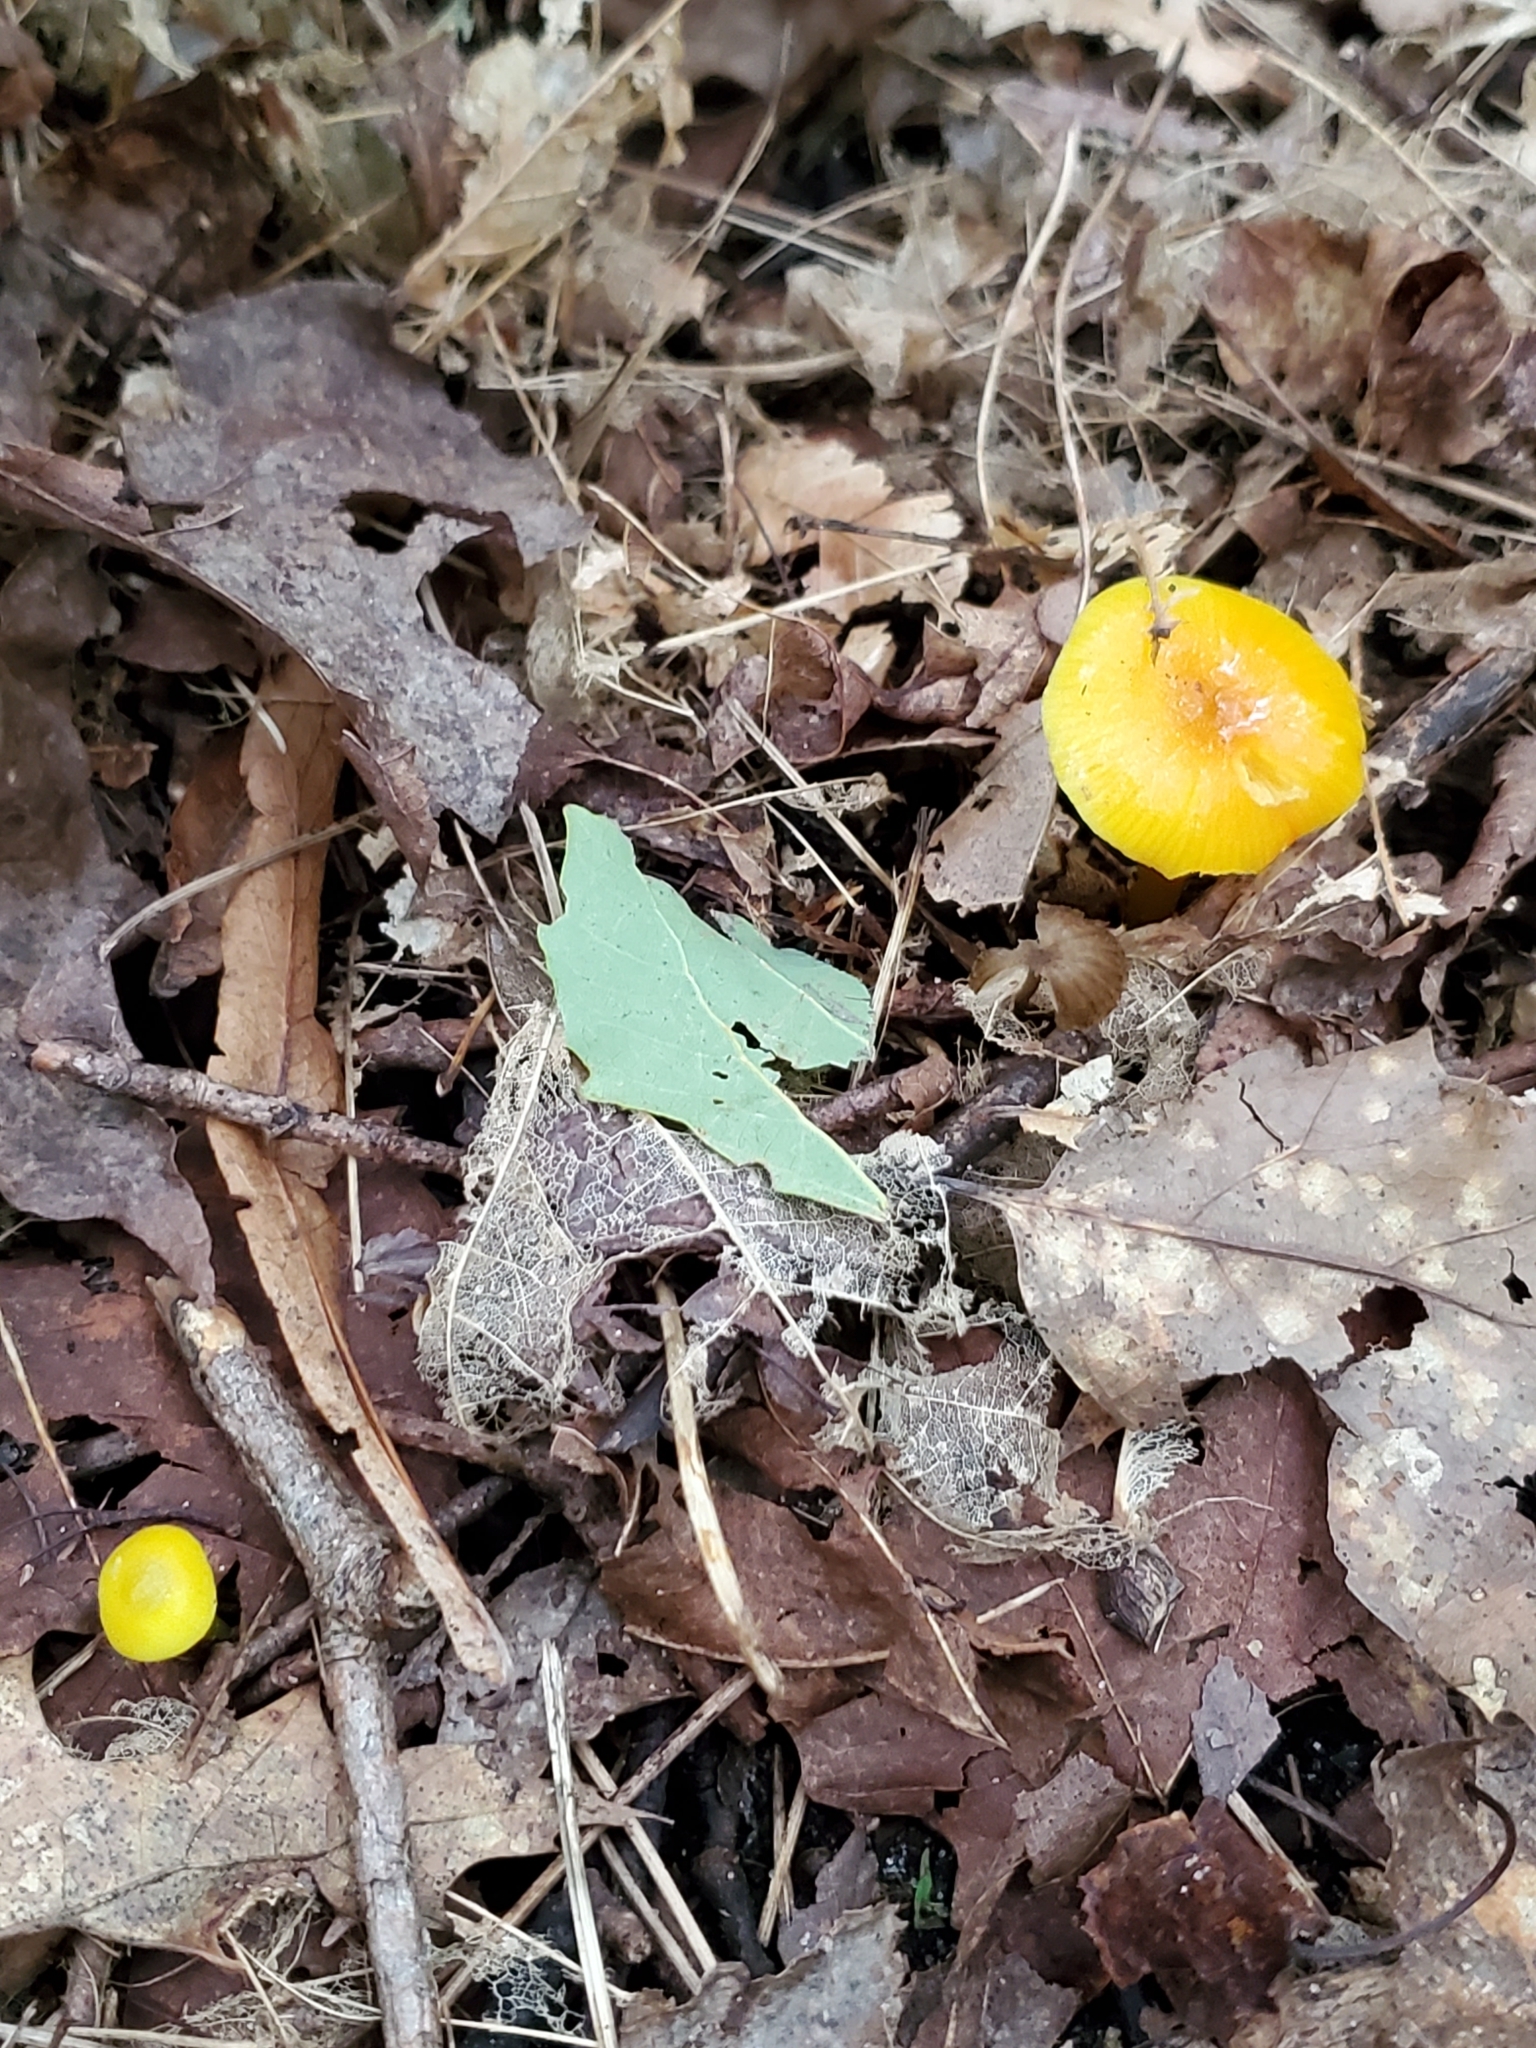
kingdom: Fungi
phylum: Basidiomycota
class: Agaricomycetes
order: Agaricales
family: Hygrophoraceae
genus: Hygrocybe
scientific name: Hygrocybe flavescens
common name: Golden waxy cap
